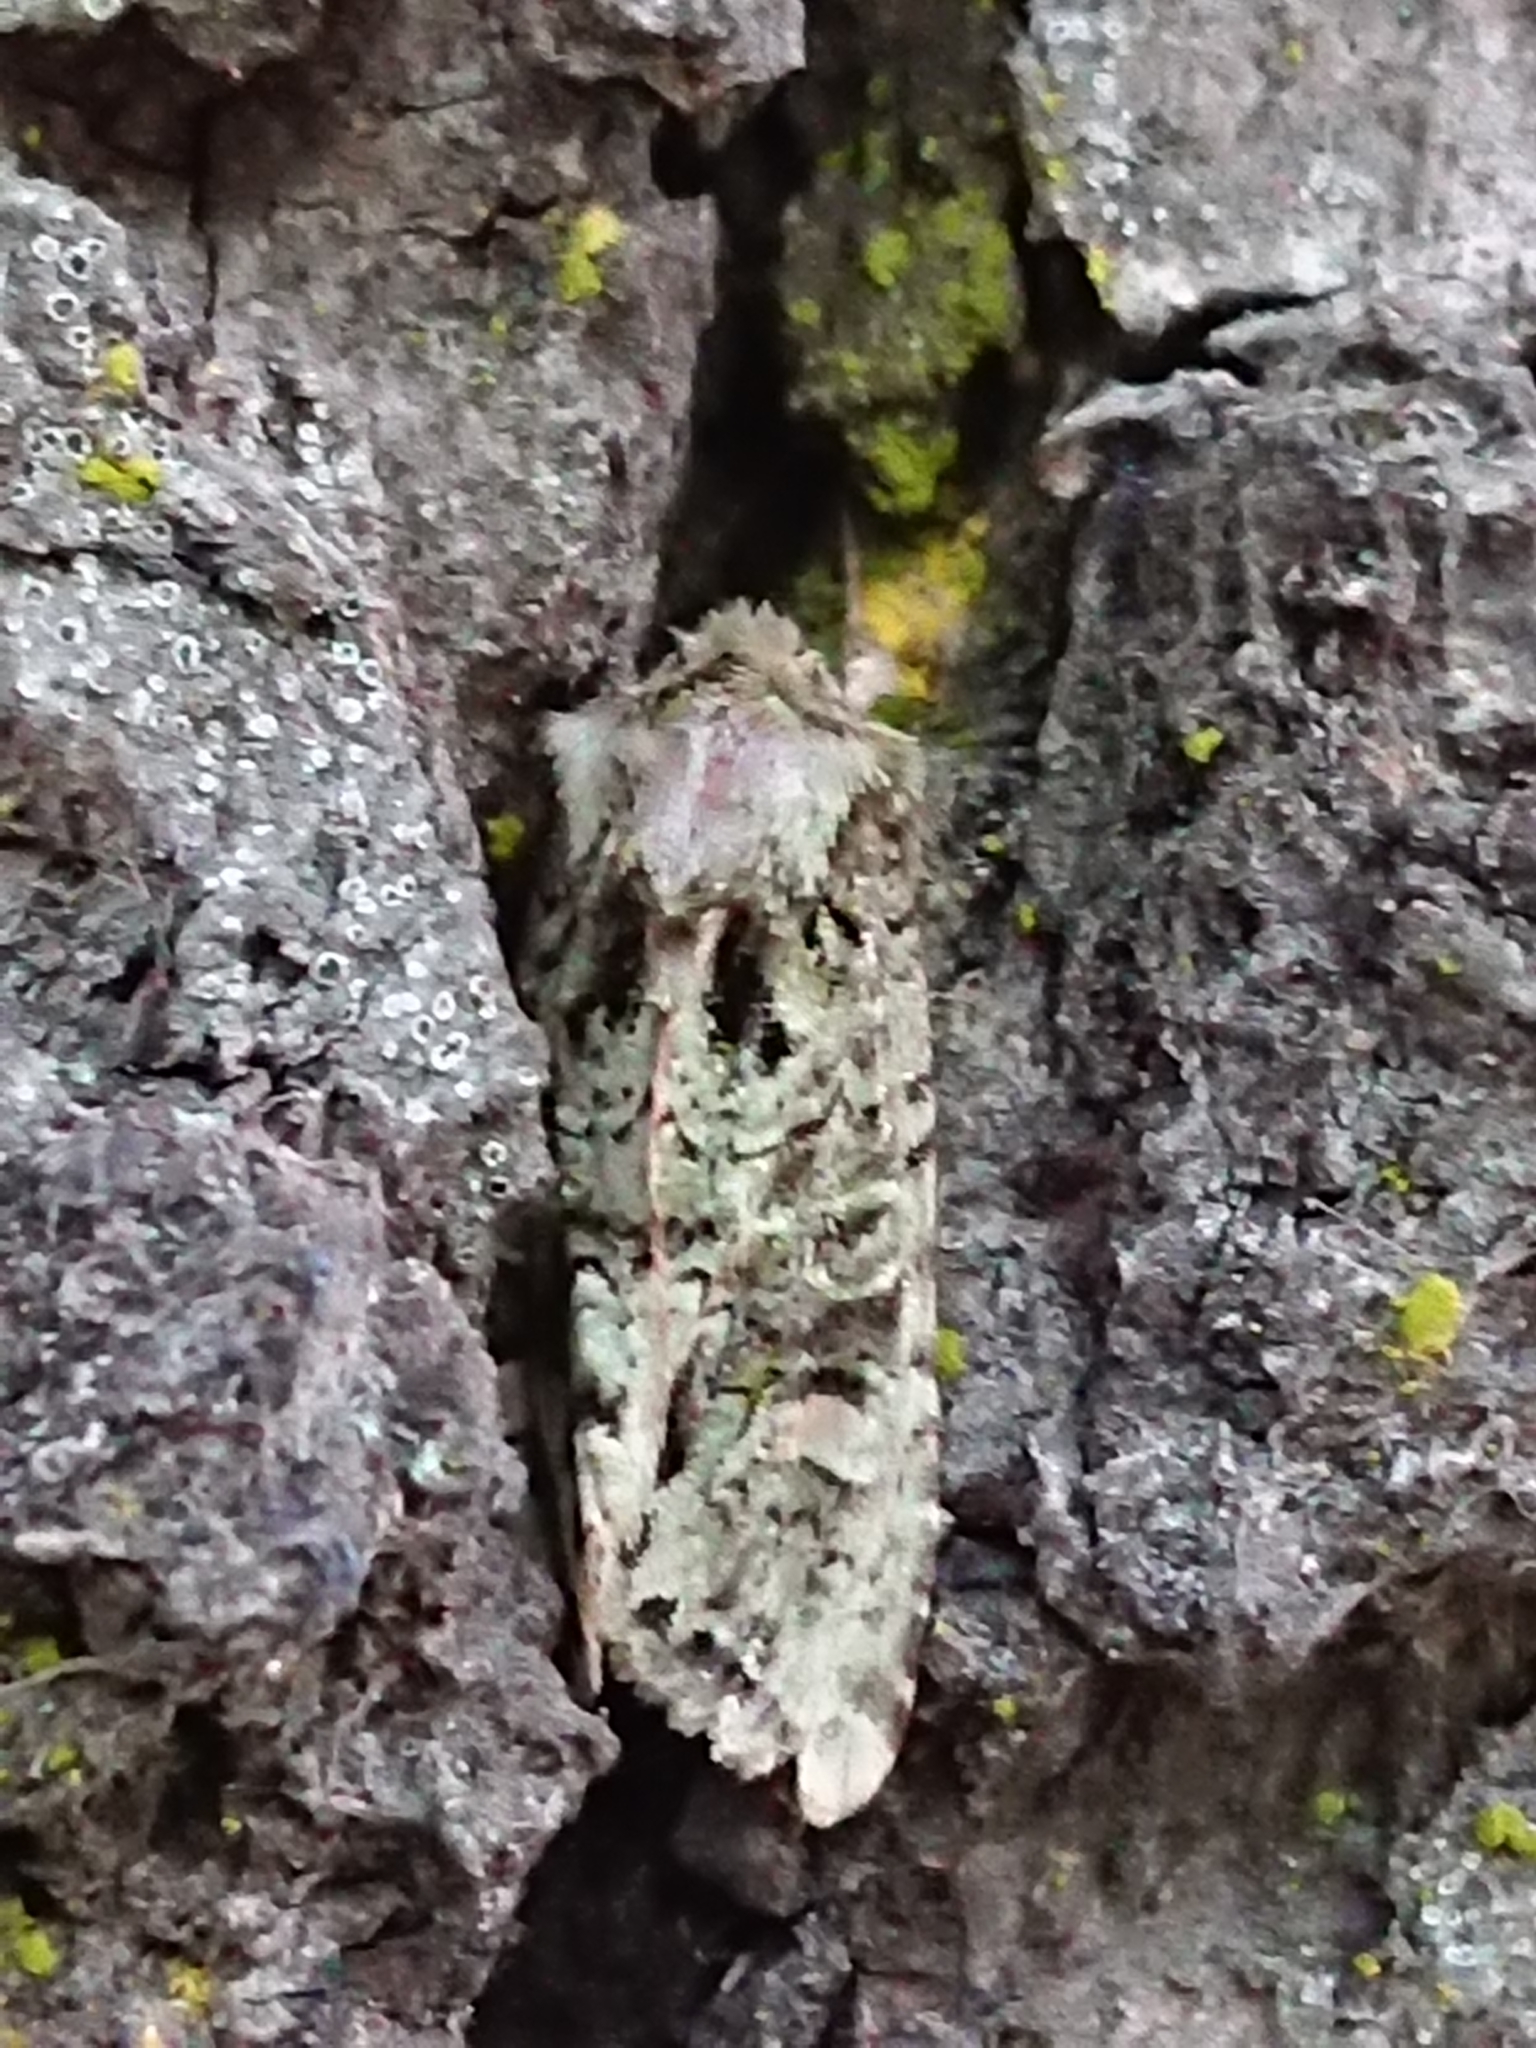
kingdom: Animalia
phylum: Arthropoda
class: Insecta
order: Lepidoptera
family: Noctuidae
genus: Ichneutica
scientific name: Ichneutica
